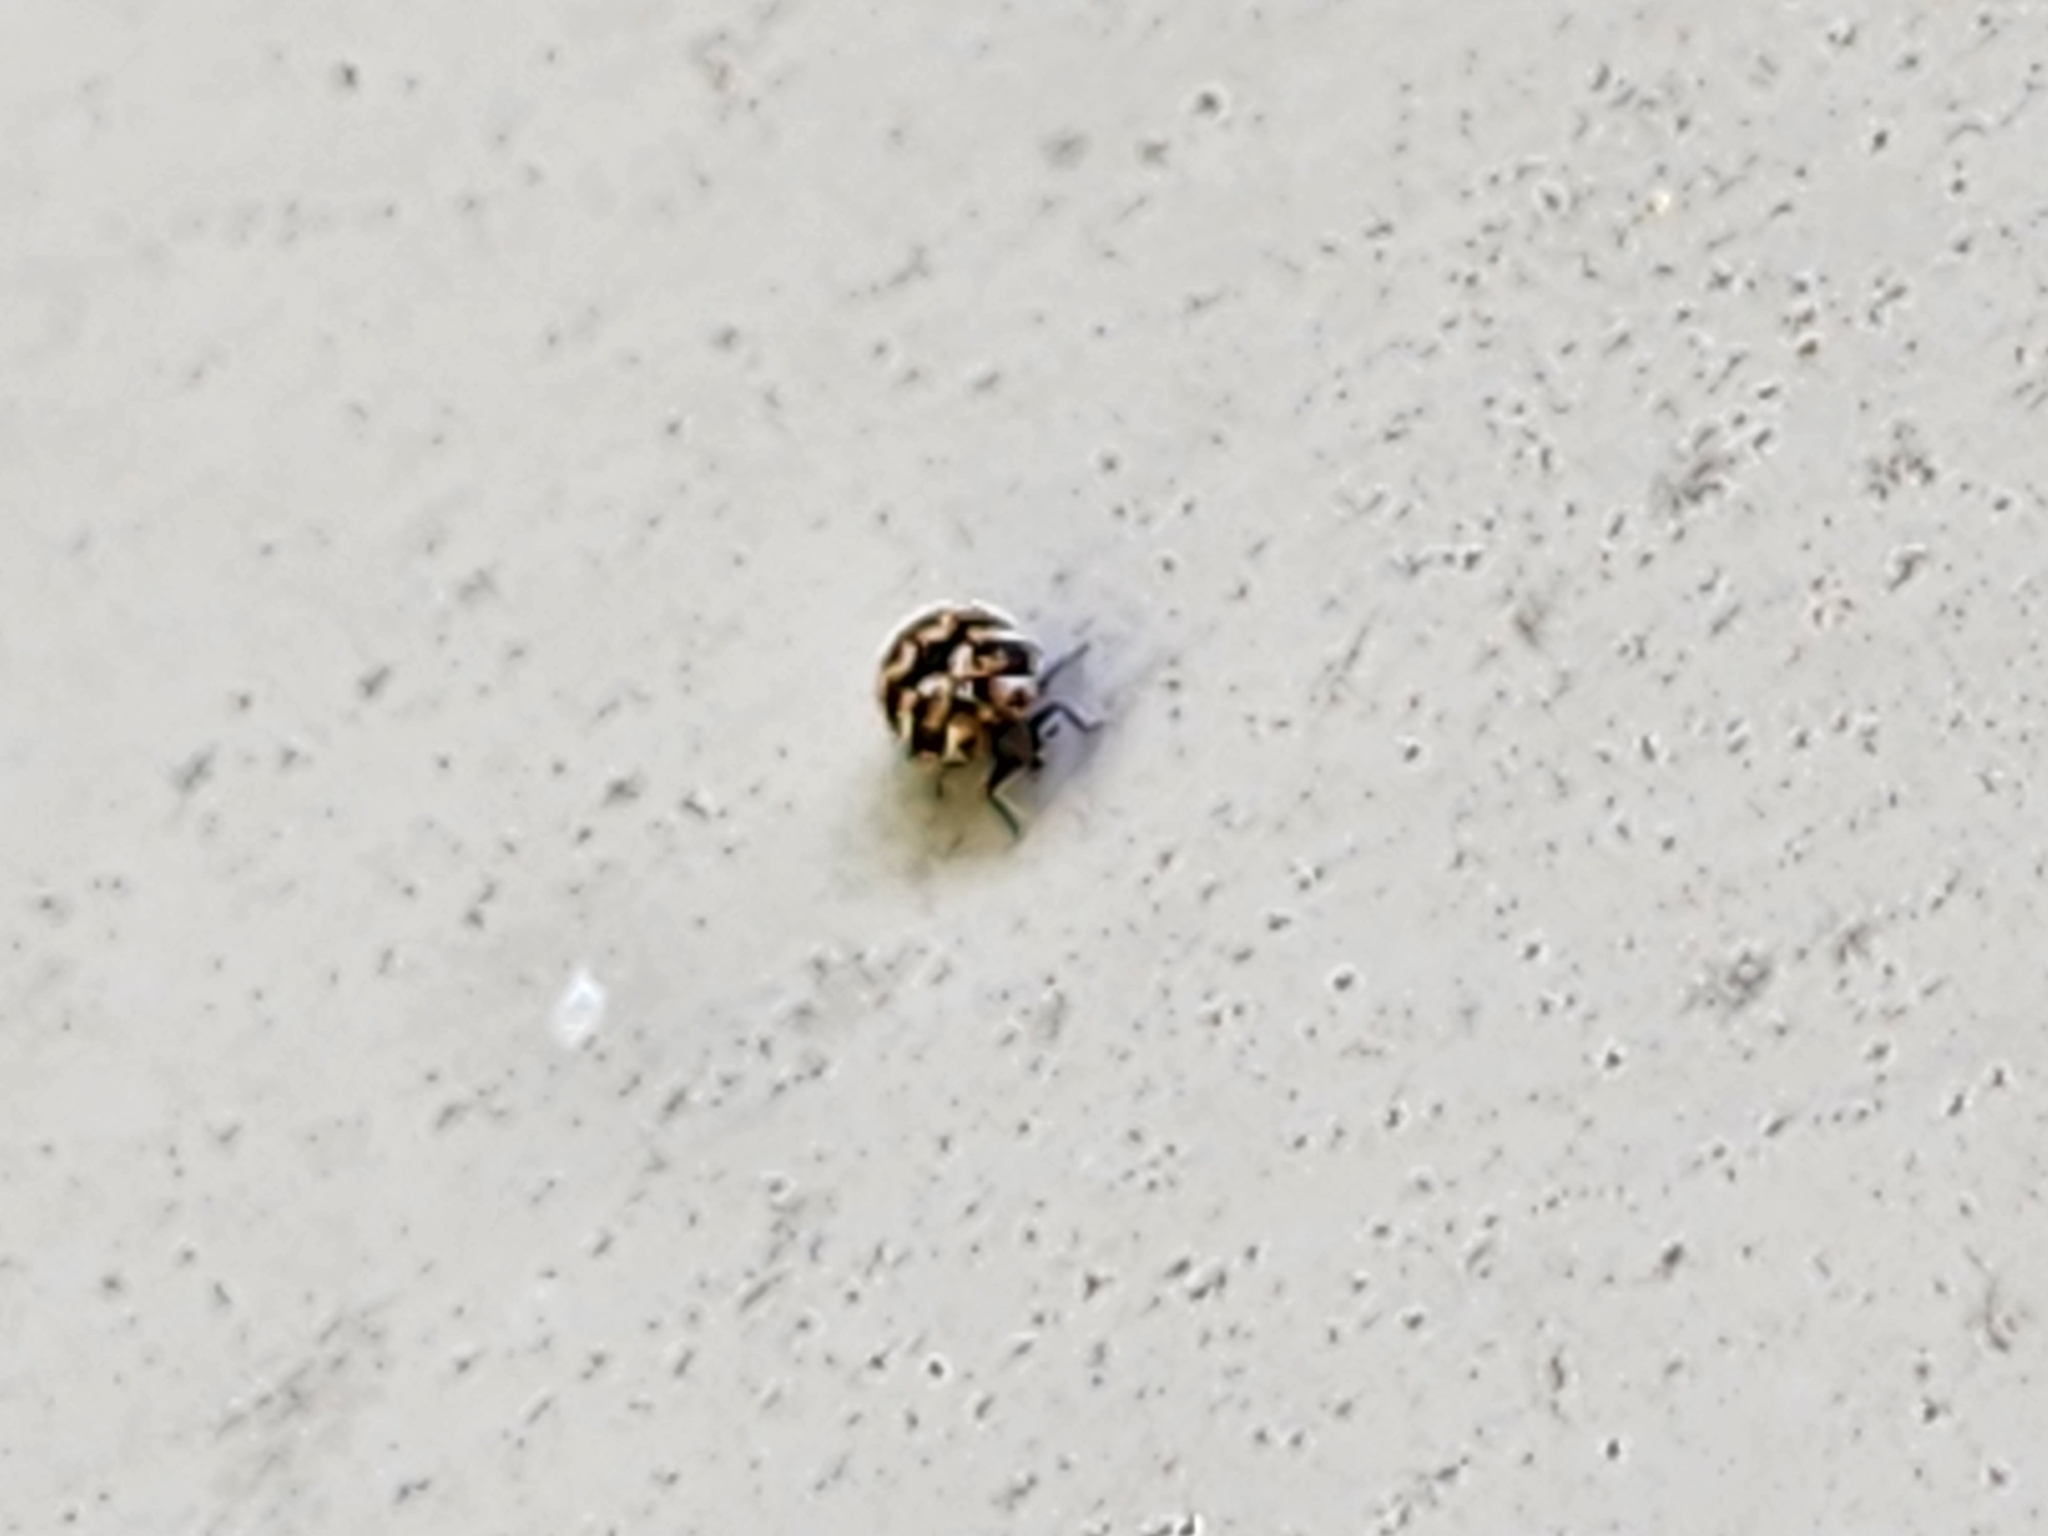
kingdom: Animalia
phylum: Arthropoda
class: Insecta
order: Coleoptera
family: Dermestidae
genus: Anthrenus
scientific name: Anthrenus verbasci
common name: Varied carpet beetle
